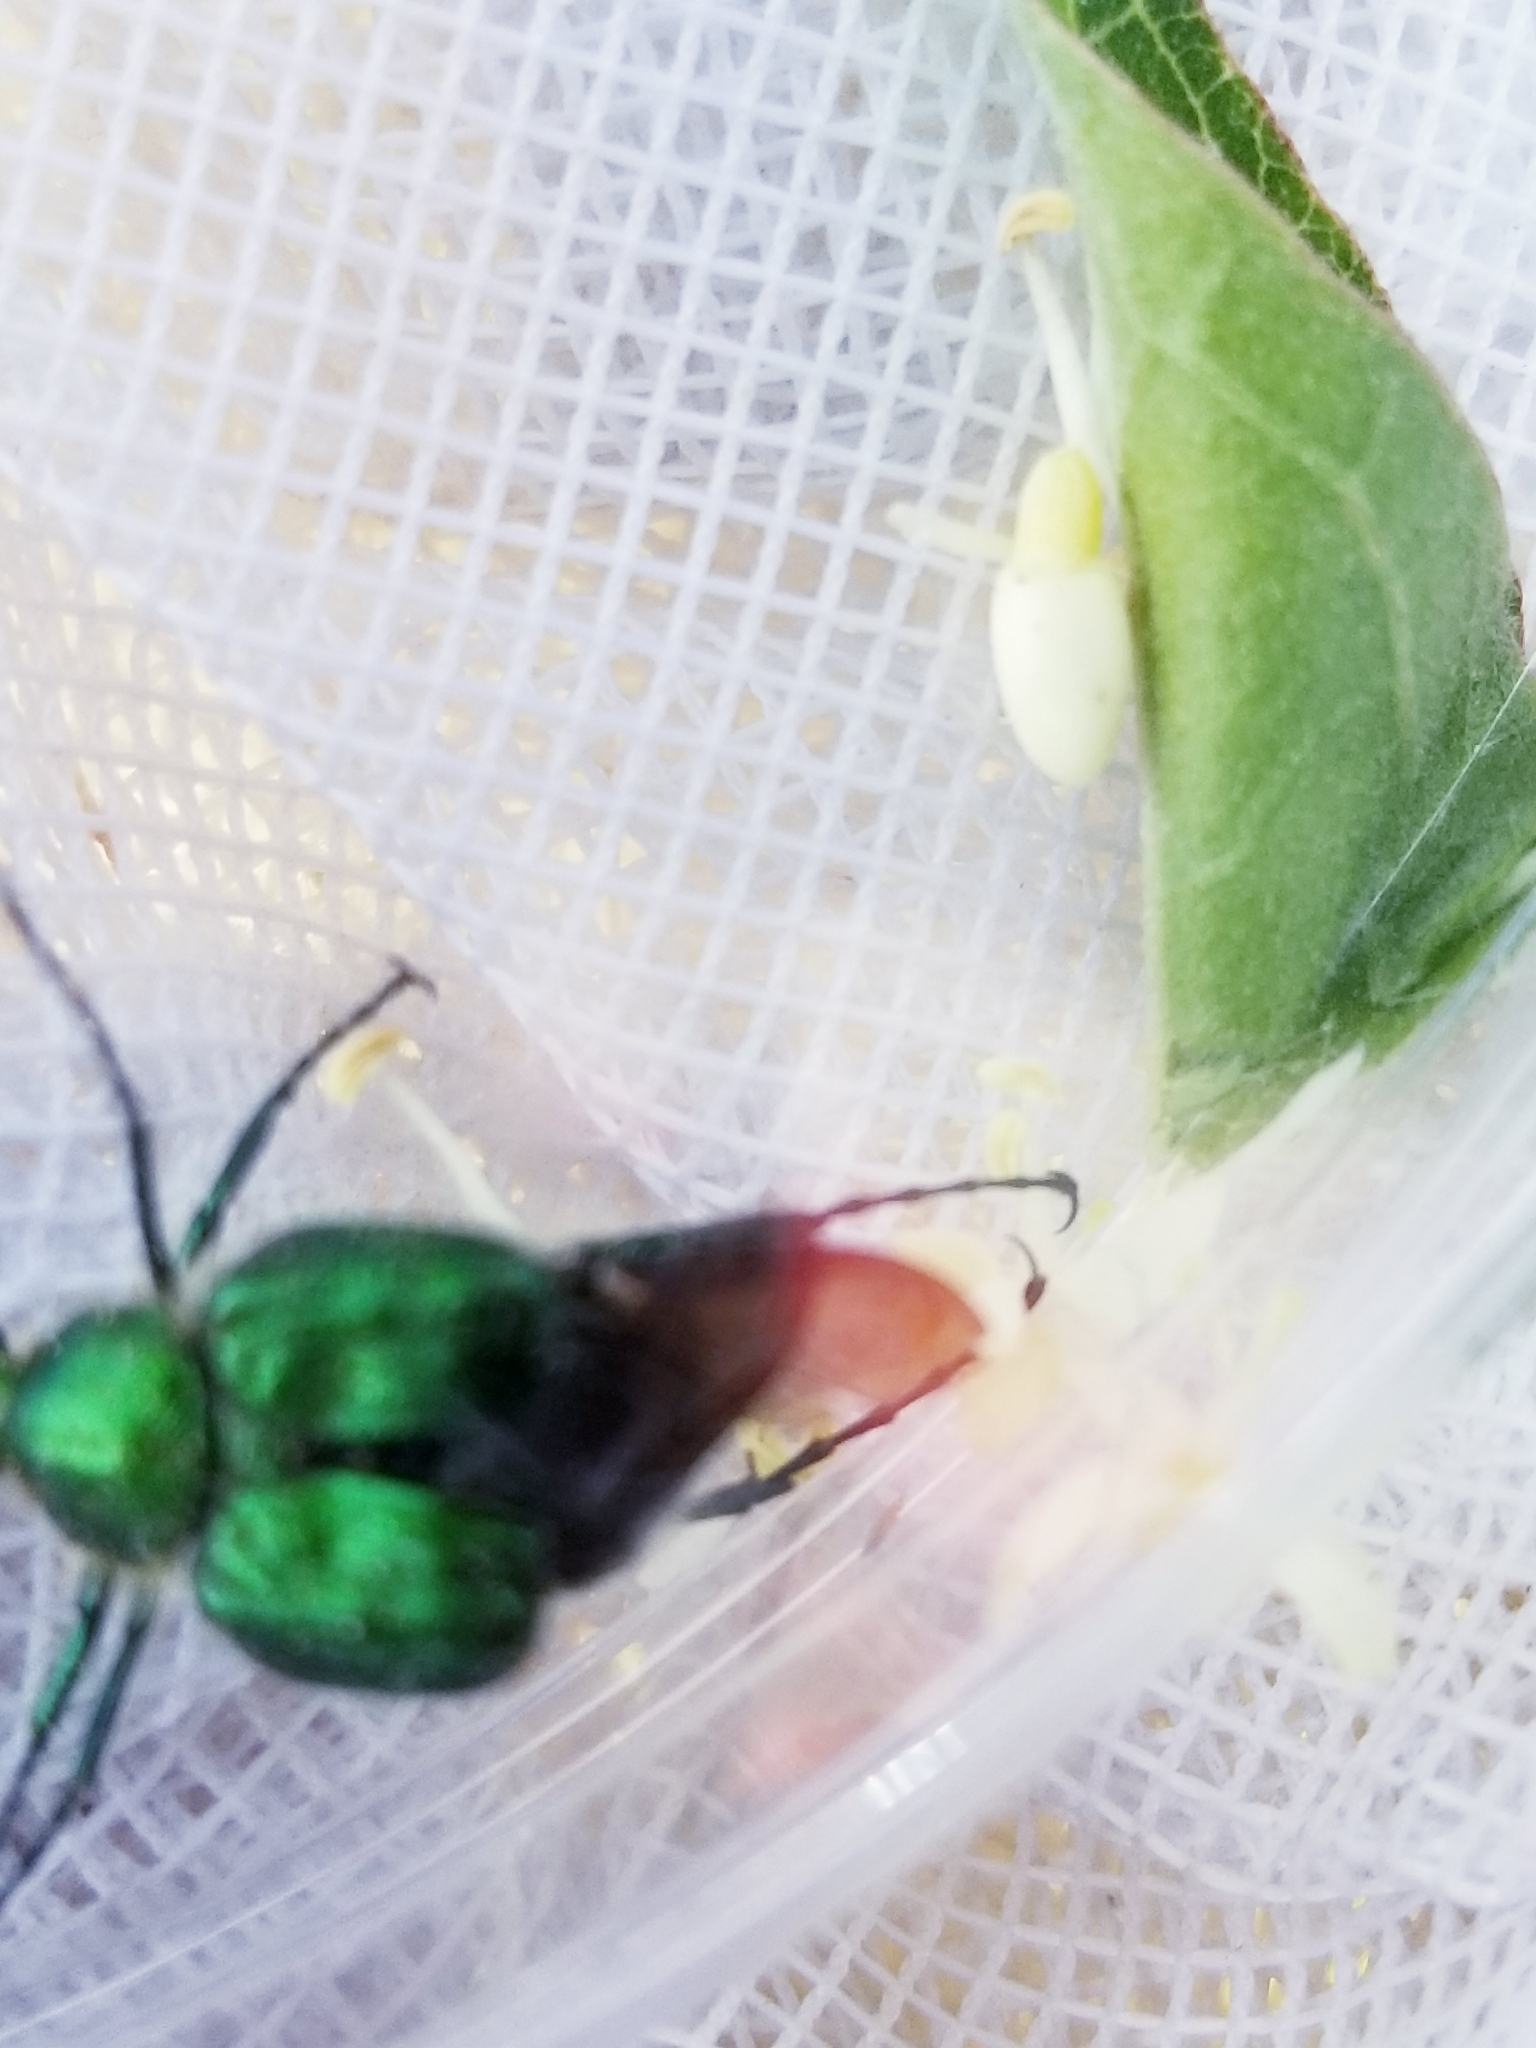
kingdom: Animalia
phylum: Arthropoda
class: Insecta
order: Coleoptera
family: Scarabaeidae
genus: Trichiotinus
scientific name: Trichiotinus lunulatus
